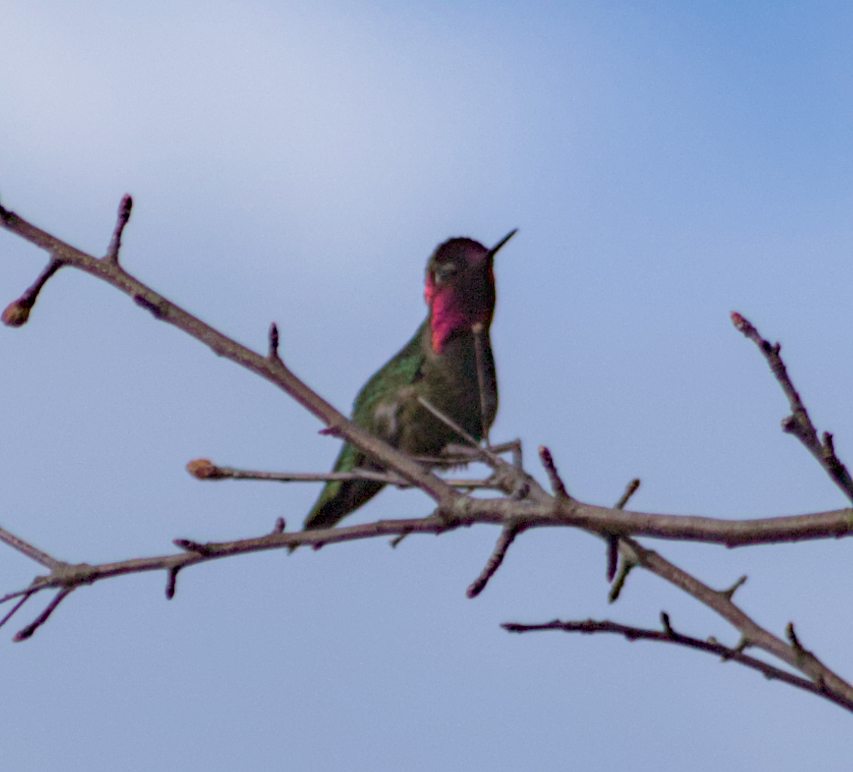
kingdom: Animalia
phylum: Chordata
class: Aves
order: Apodiformes
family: Trochilidae
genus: Calypte
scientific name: Calypte anna
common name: Anna's hummingbird
